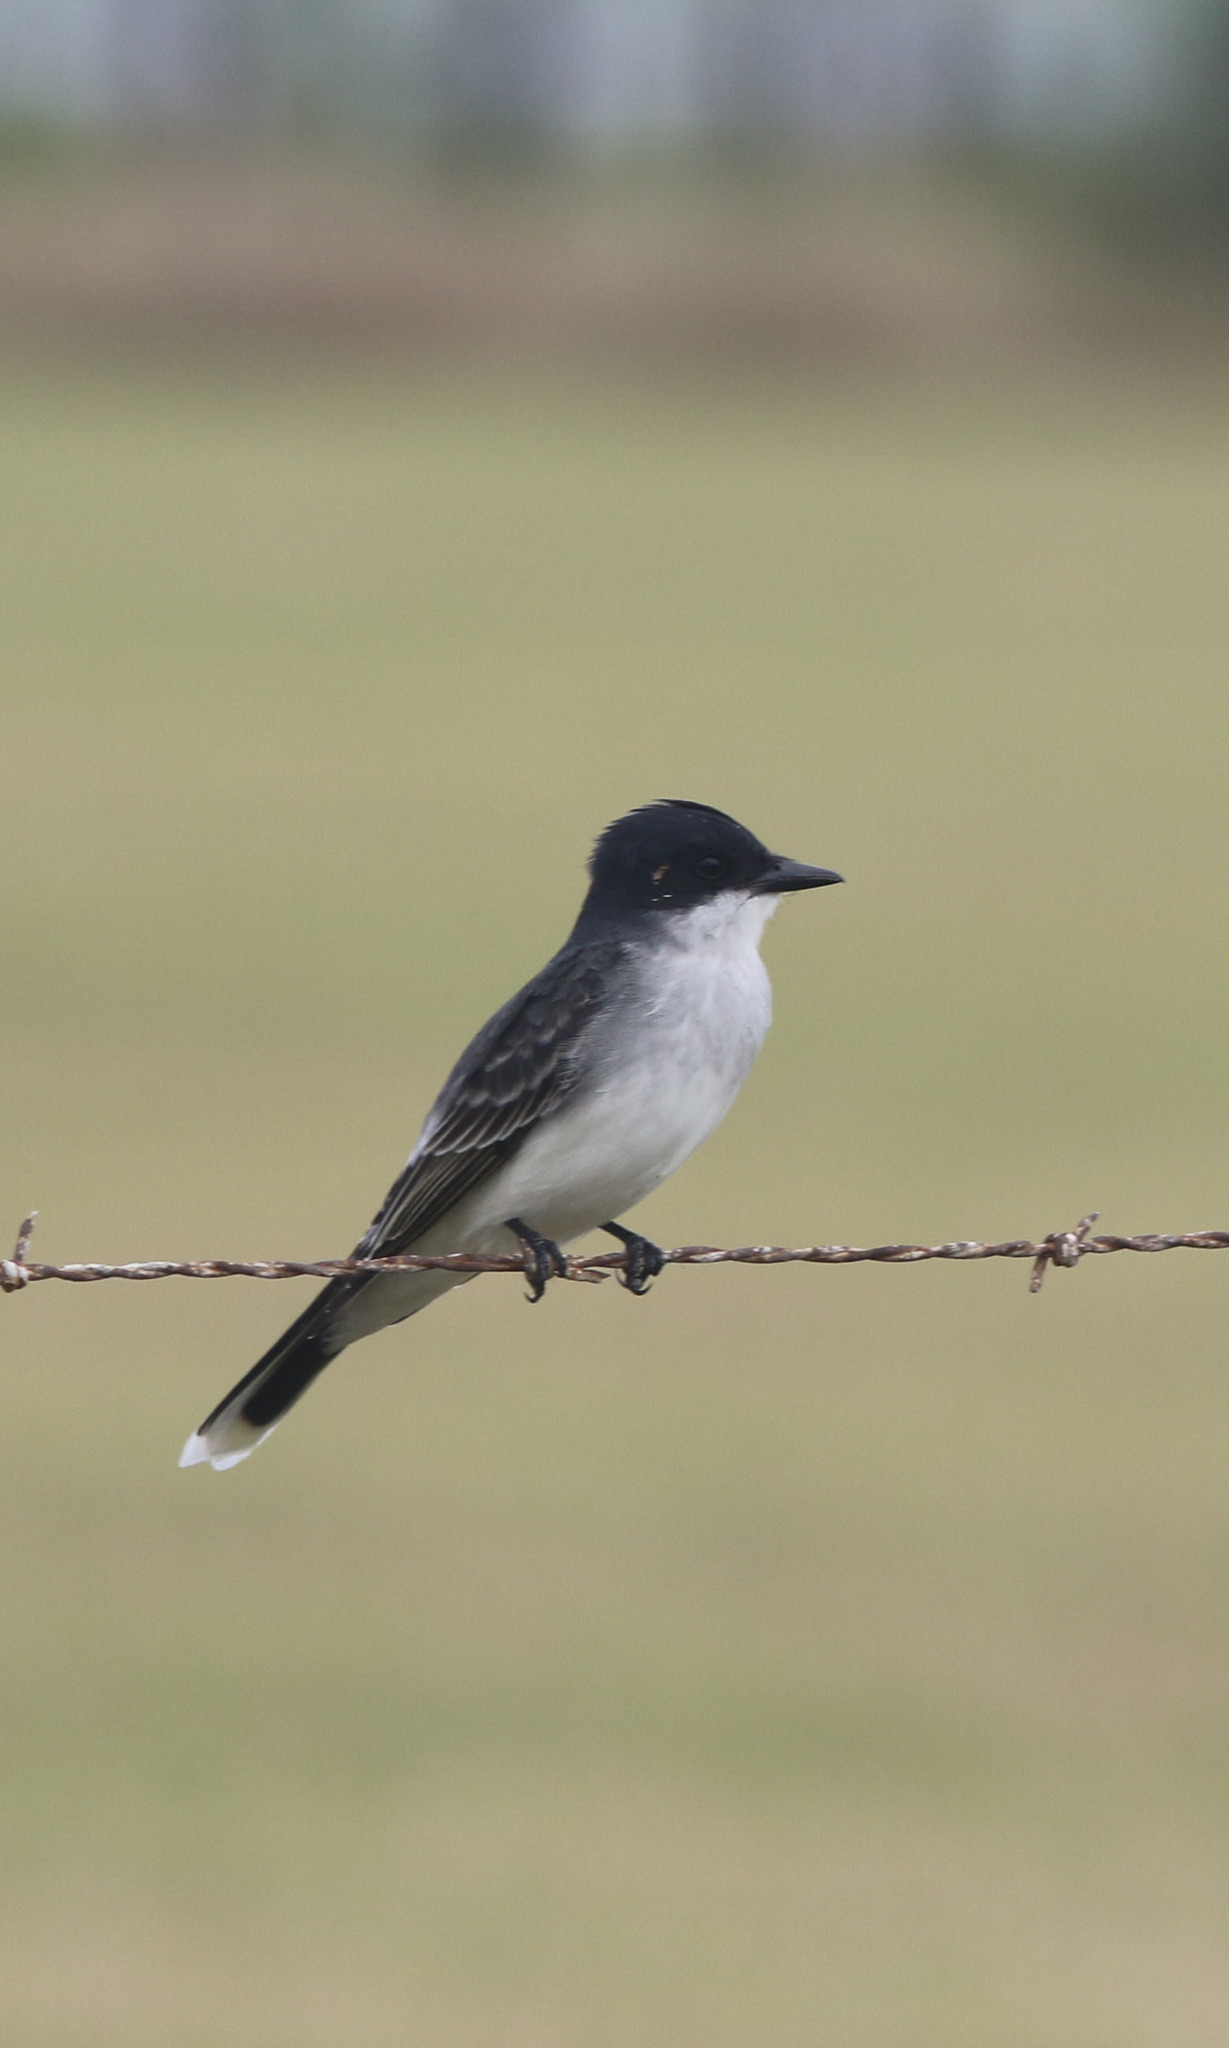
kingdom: Animalia
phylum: Chordata
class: Aves
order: Passeriformes
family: Tyrannidae
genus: Tyrannus
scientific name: Tyrannus tyrannus
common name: Eastern kingbird
